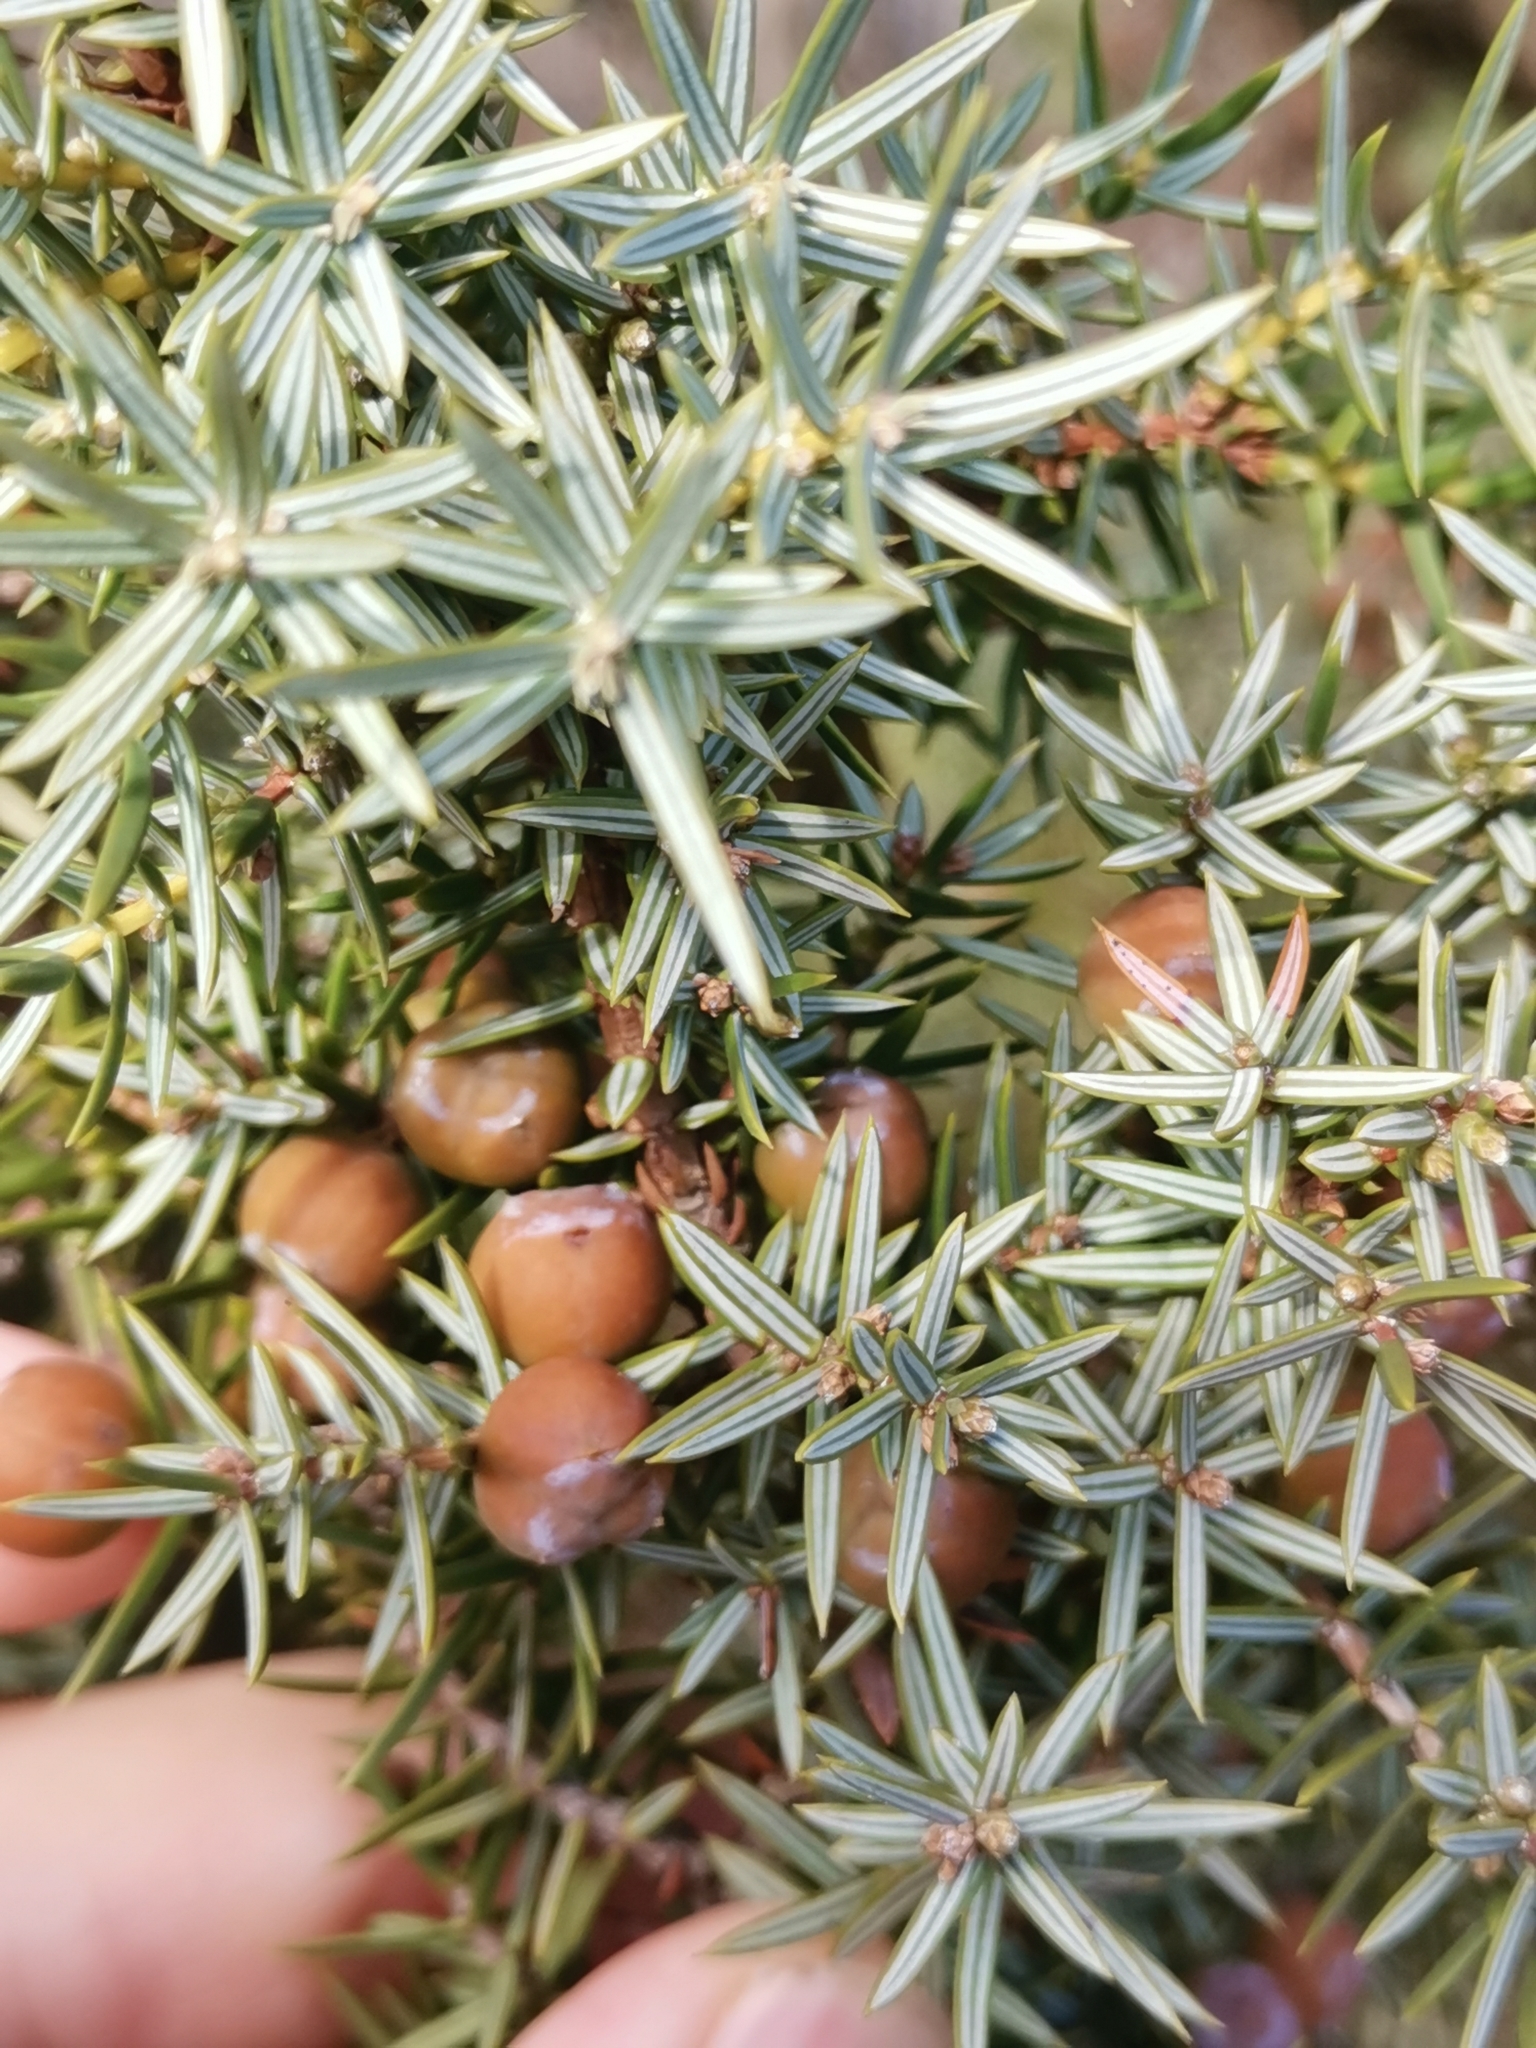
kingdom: Plantae
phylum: Tracheophyta
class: Pinopsida
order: Pinales
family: Cupressaceae
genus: Juniperus
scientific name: Juniperus oxycedrus
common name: Prickly juniper
